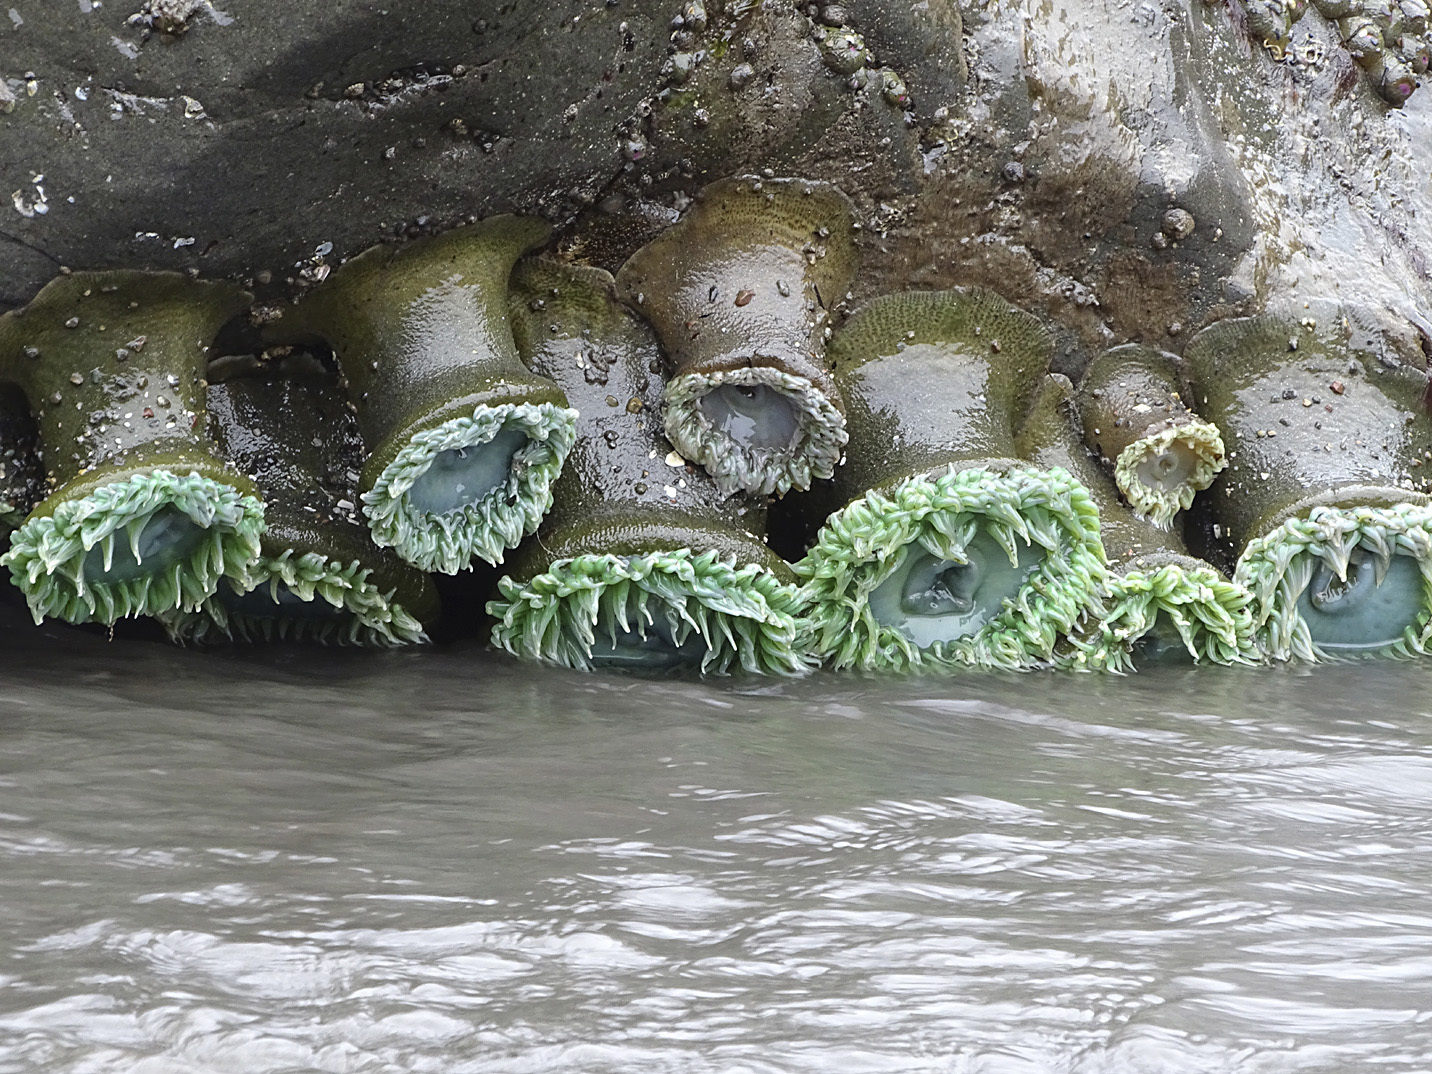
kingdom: Animalia
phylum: Cnidaria
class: Anthozoa
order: Actiniaria
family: Actiniidae
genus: Anthopleura
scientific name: Anthopleura xanthogrammica
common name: Giant green anemone
